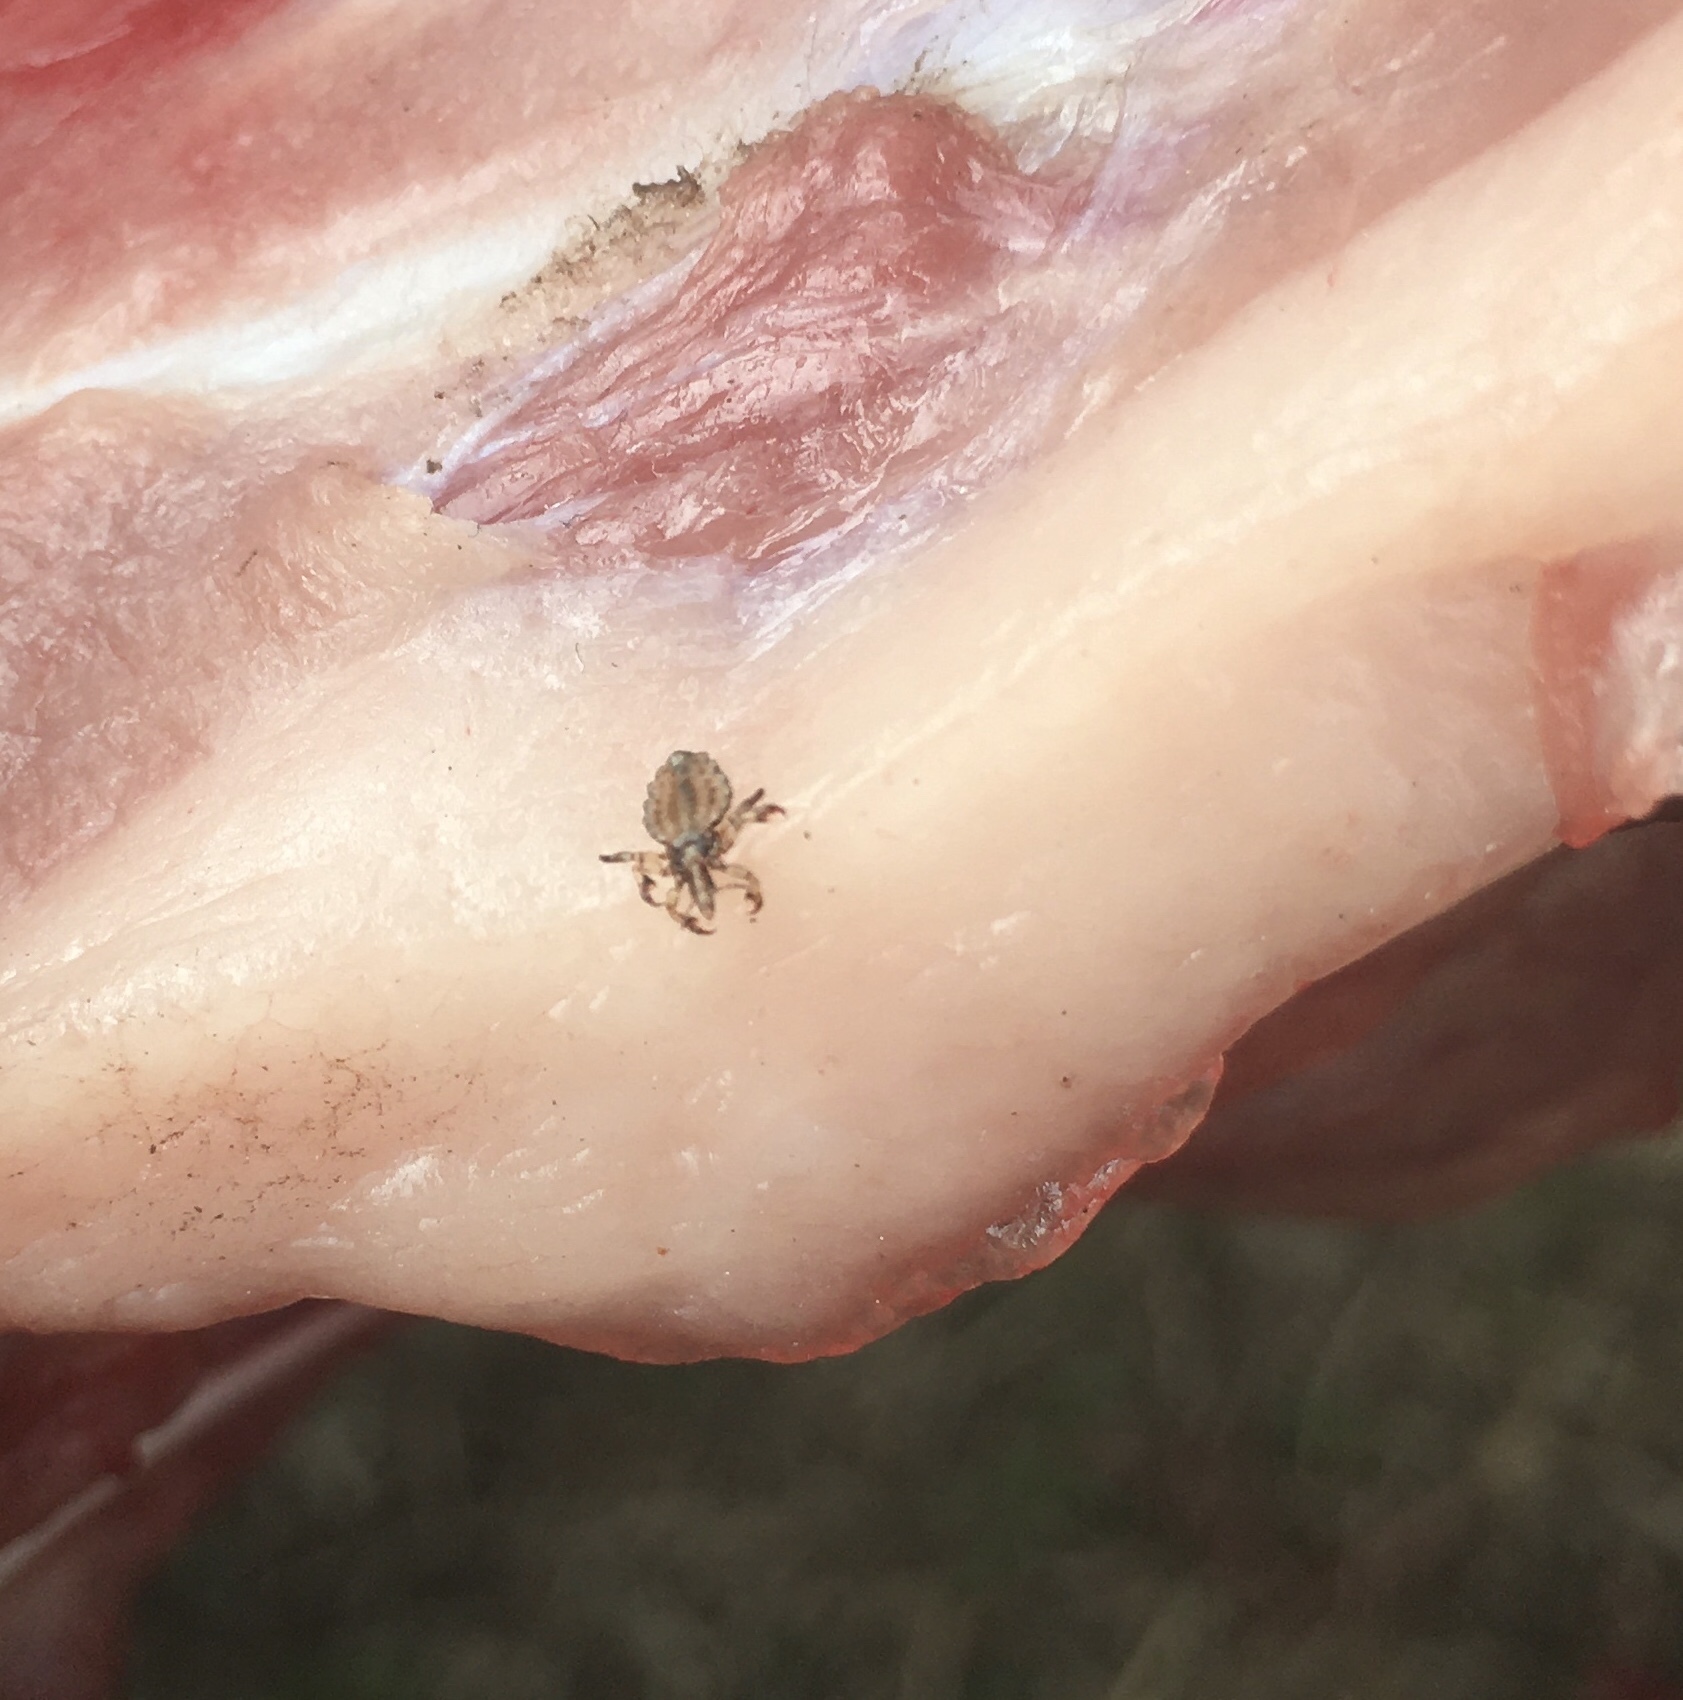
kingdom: Animalia
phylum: Arthropoda
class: Insecta
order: Psocodea
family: Haematopinidae
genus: Haematopinus
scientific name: Haematopinus suis
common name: Hog louse
